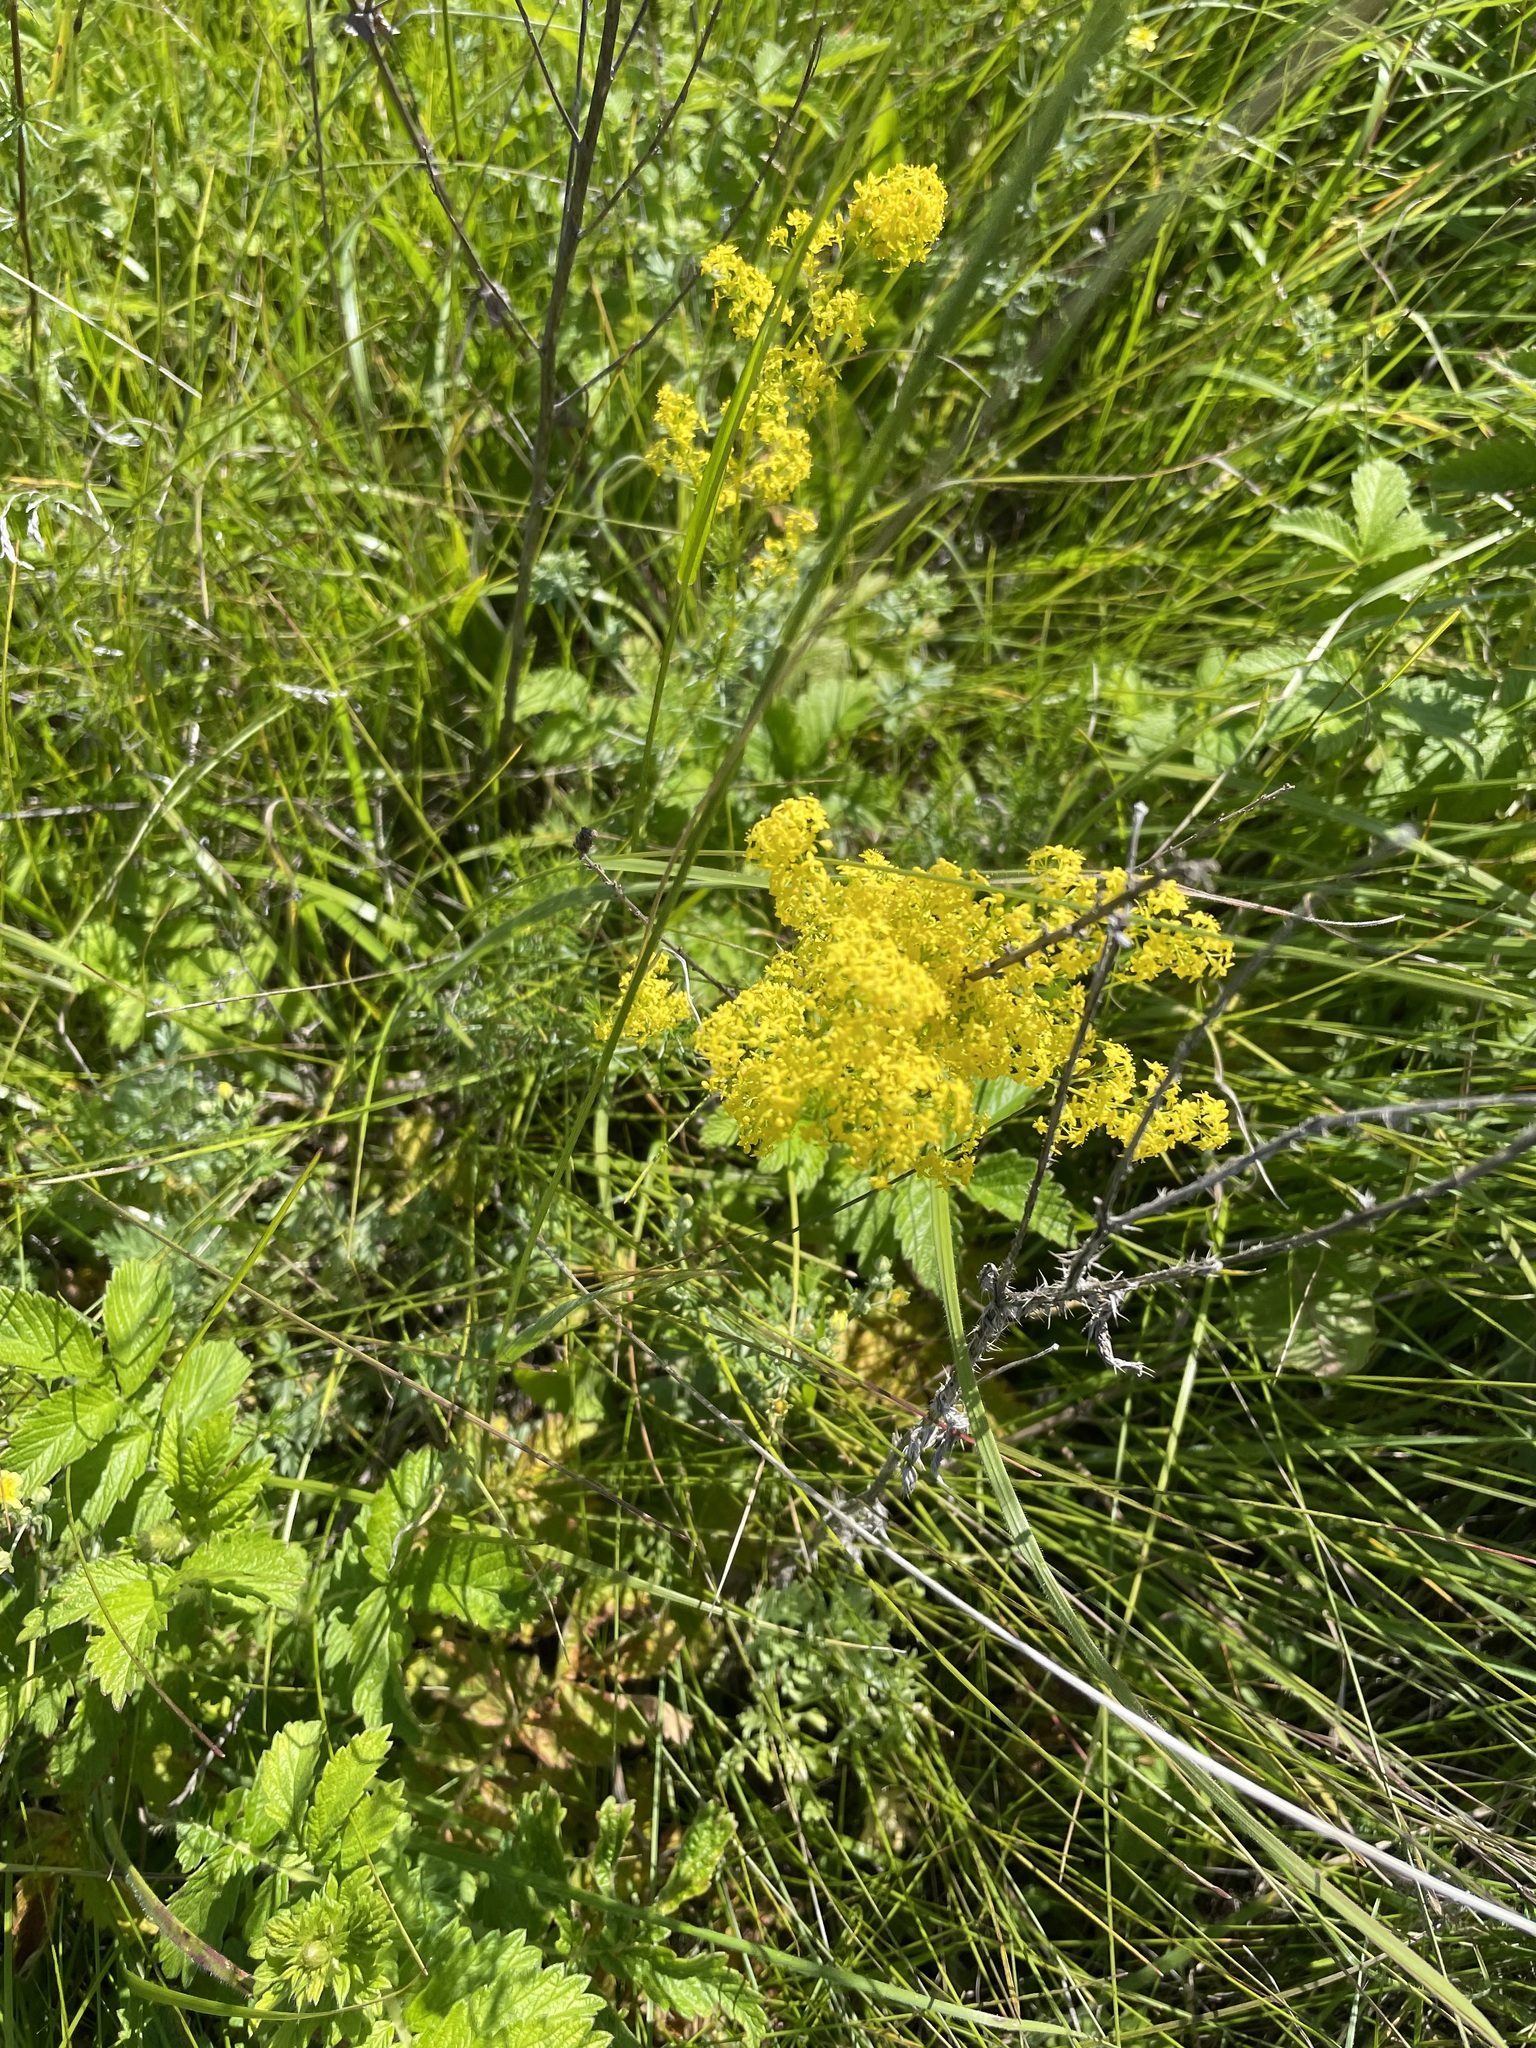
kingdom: Plantae
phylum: Tracheophyta
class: Magnoliopsida
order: Gentianales
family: Rubiaceae
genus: Galium
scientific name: Galium verum
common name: Lady's bedstraw
